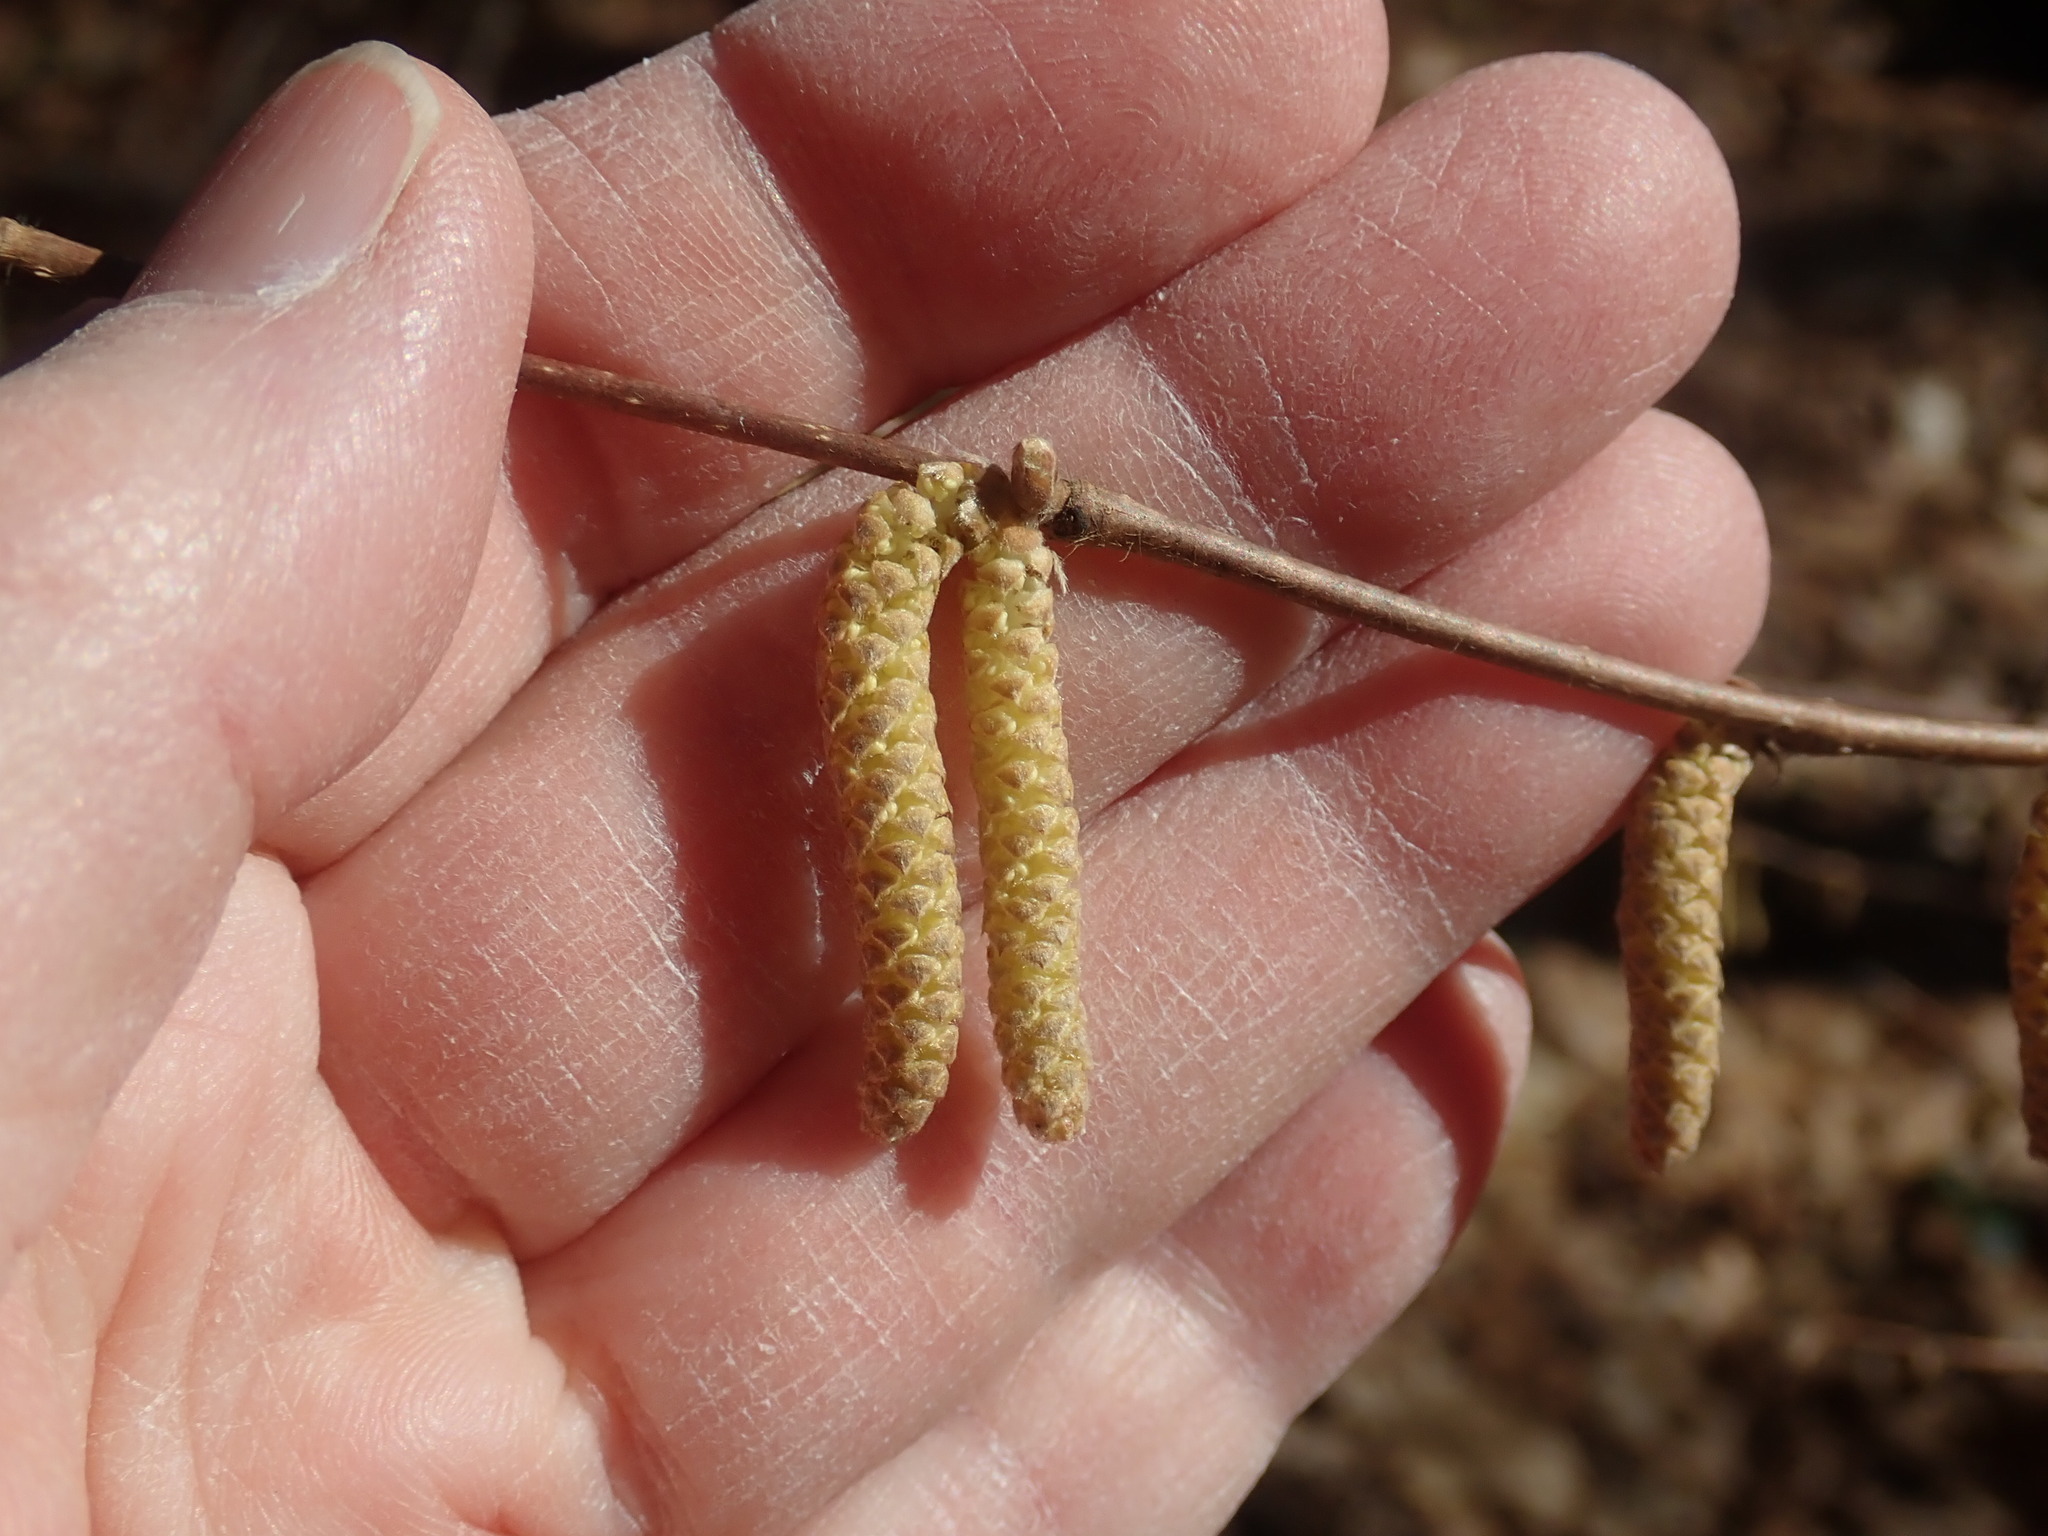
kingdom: Plantae
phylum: Tracheophyta
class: Magnoliopsida
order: Fagales
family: Betulaceae
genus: Corylus
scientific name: Corylus cornuta
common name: Beaked hazel
